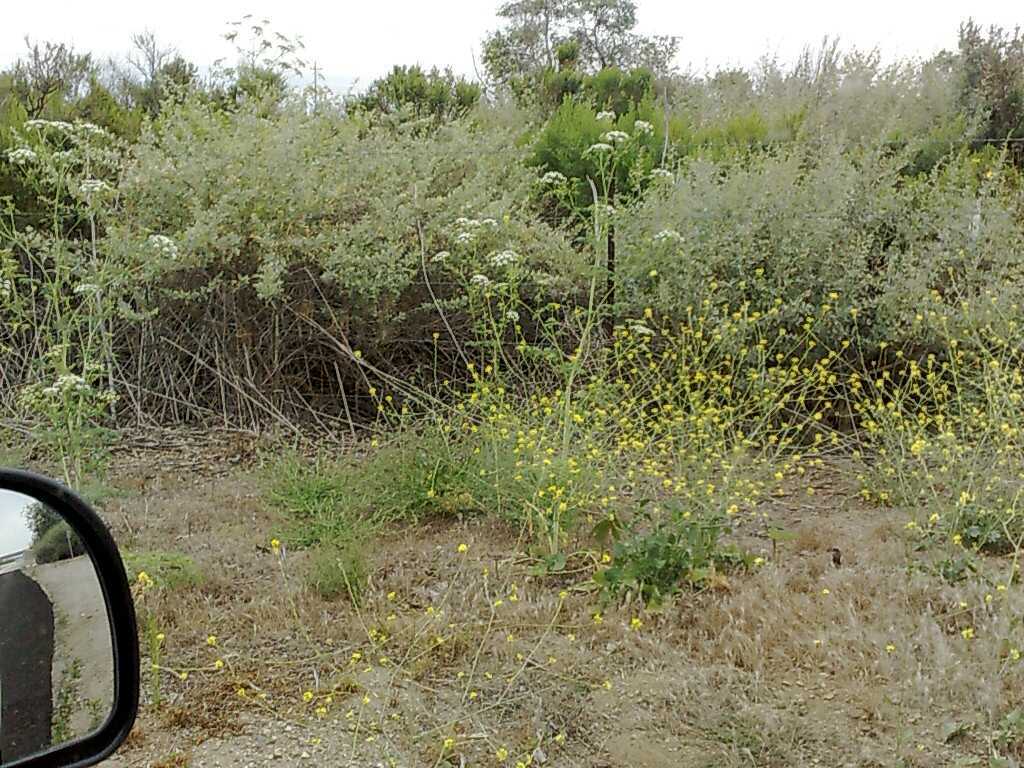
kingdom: Plantae
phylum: Tracheophyta
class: Magnoliopsida
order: Brassicales
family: Brassicaceae
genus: Hirschfeldia
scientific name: Hirschfeldia incana
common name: Hoary mustard
